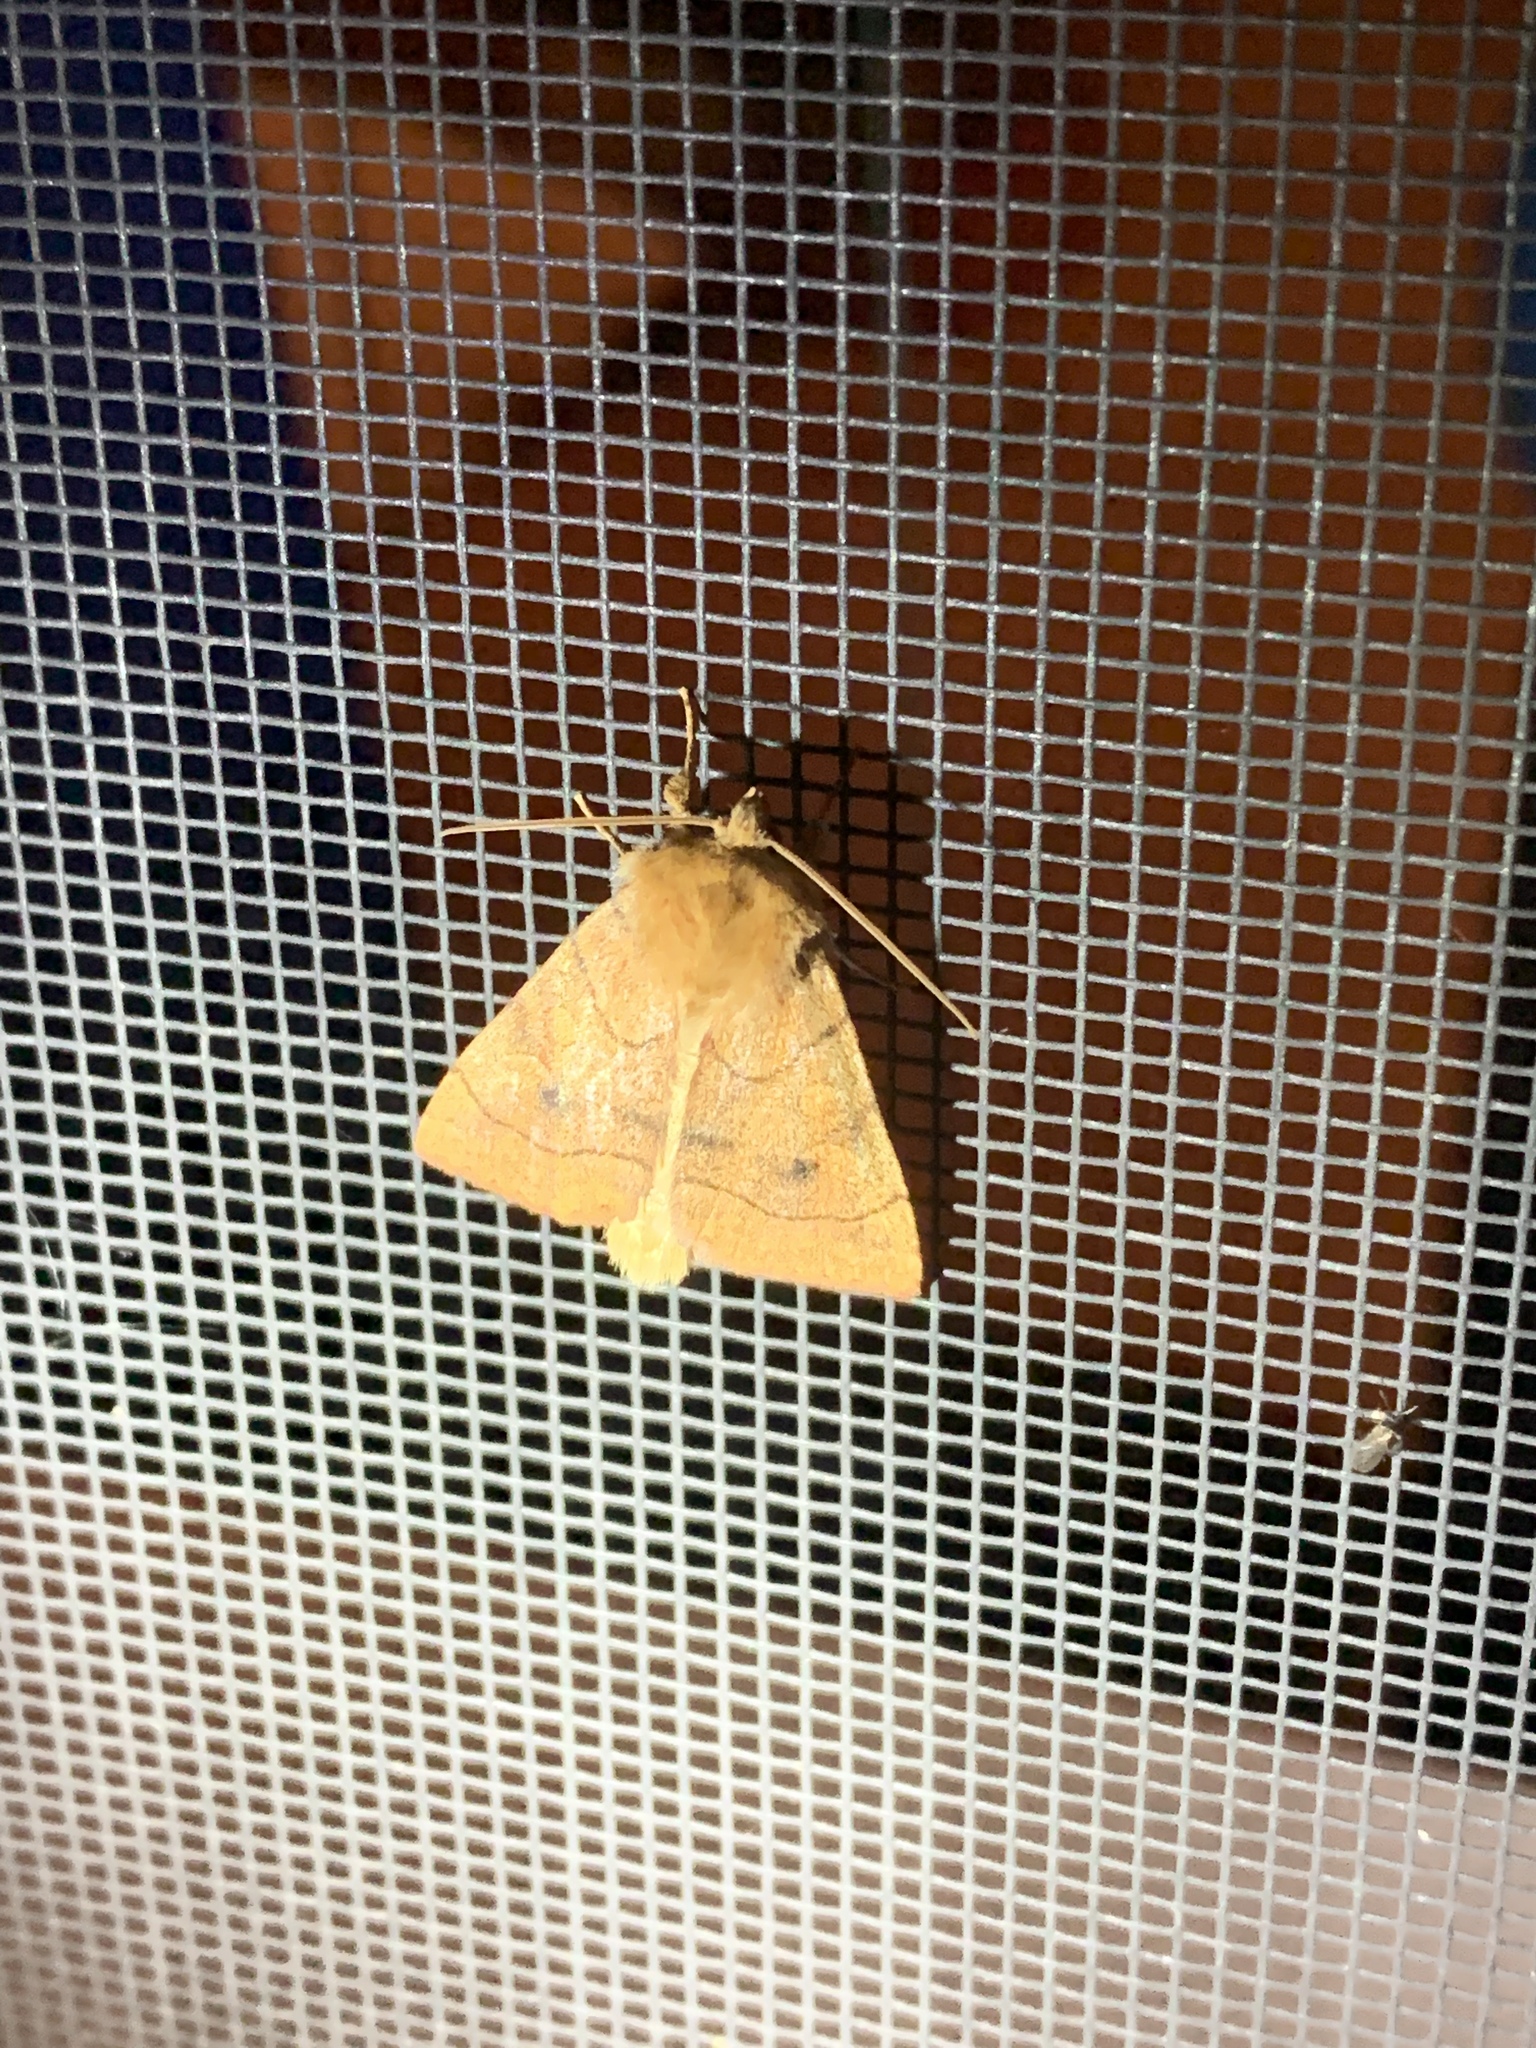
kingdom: Animalia
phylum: Arthropoda
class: Insecta
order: Lepidoptera
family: Noctuidae
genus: Enargia
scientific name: Enargia decolor
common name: Aspen twoleaf tier moth
